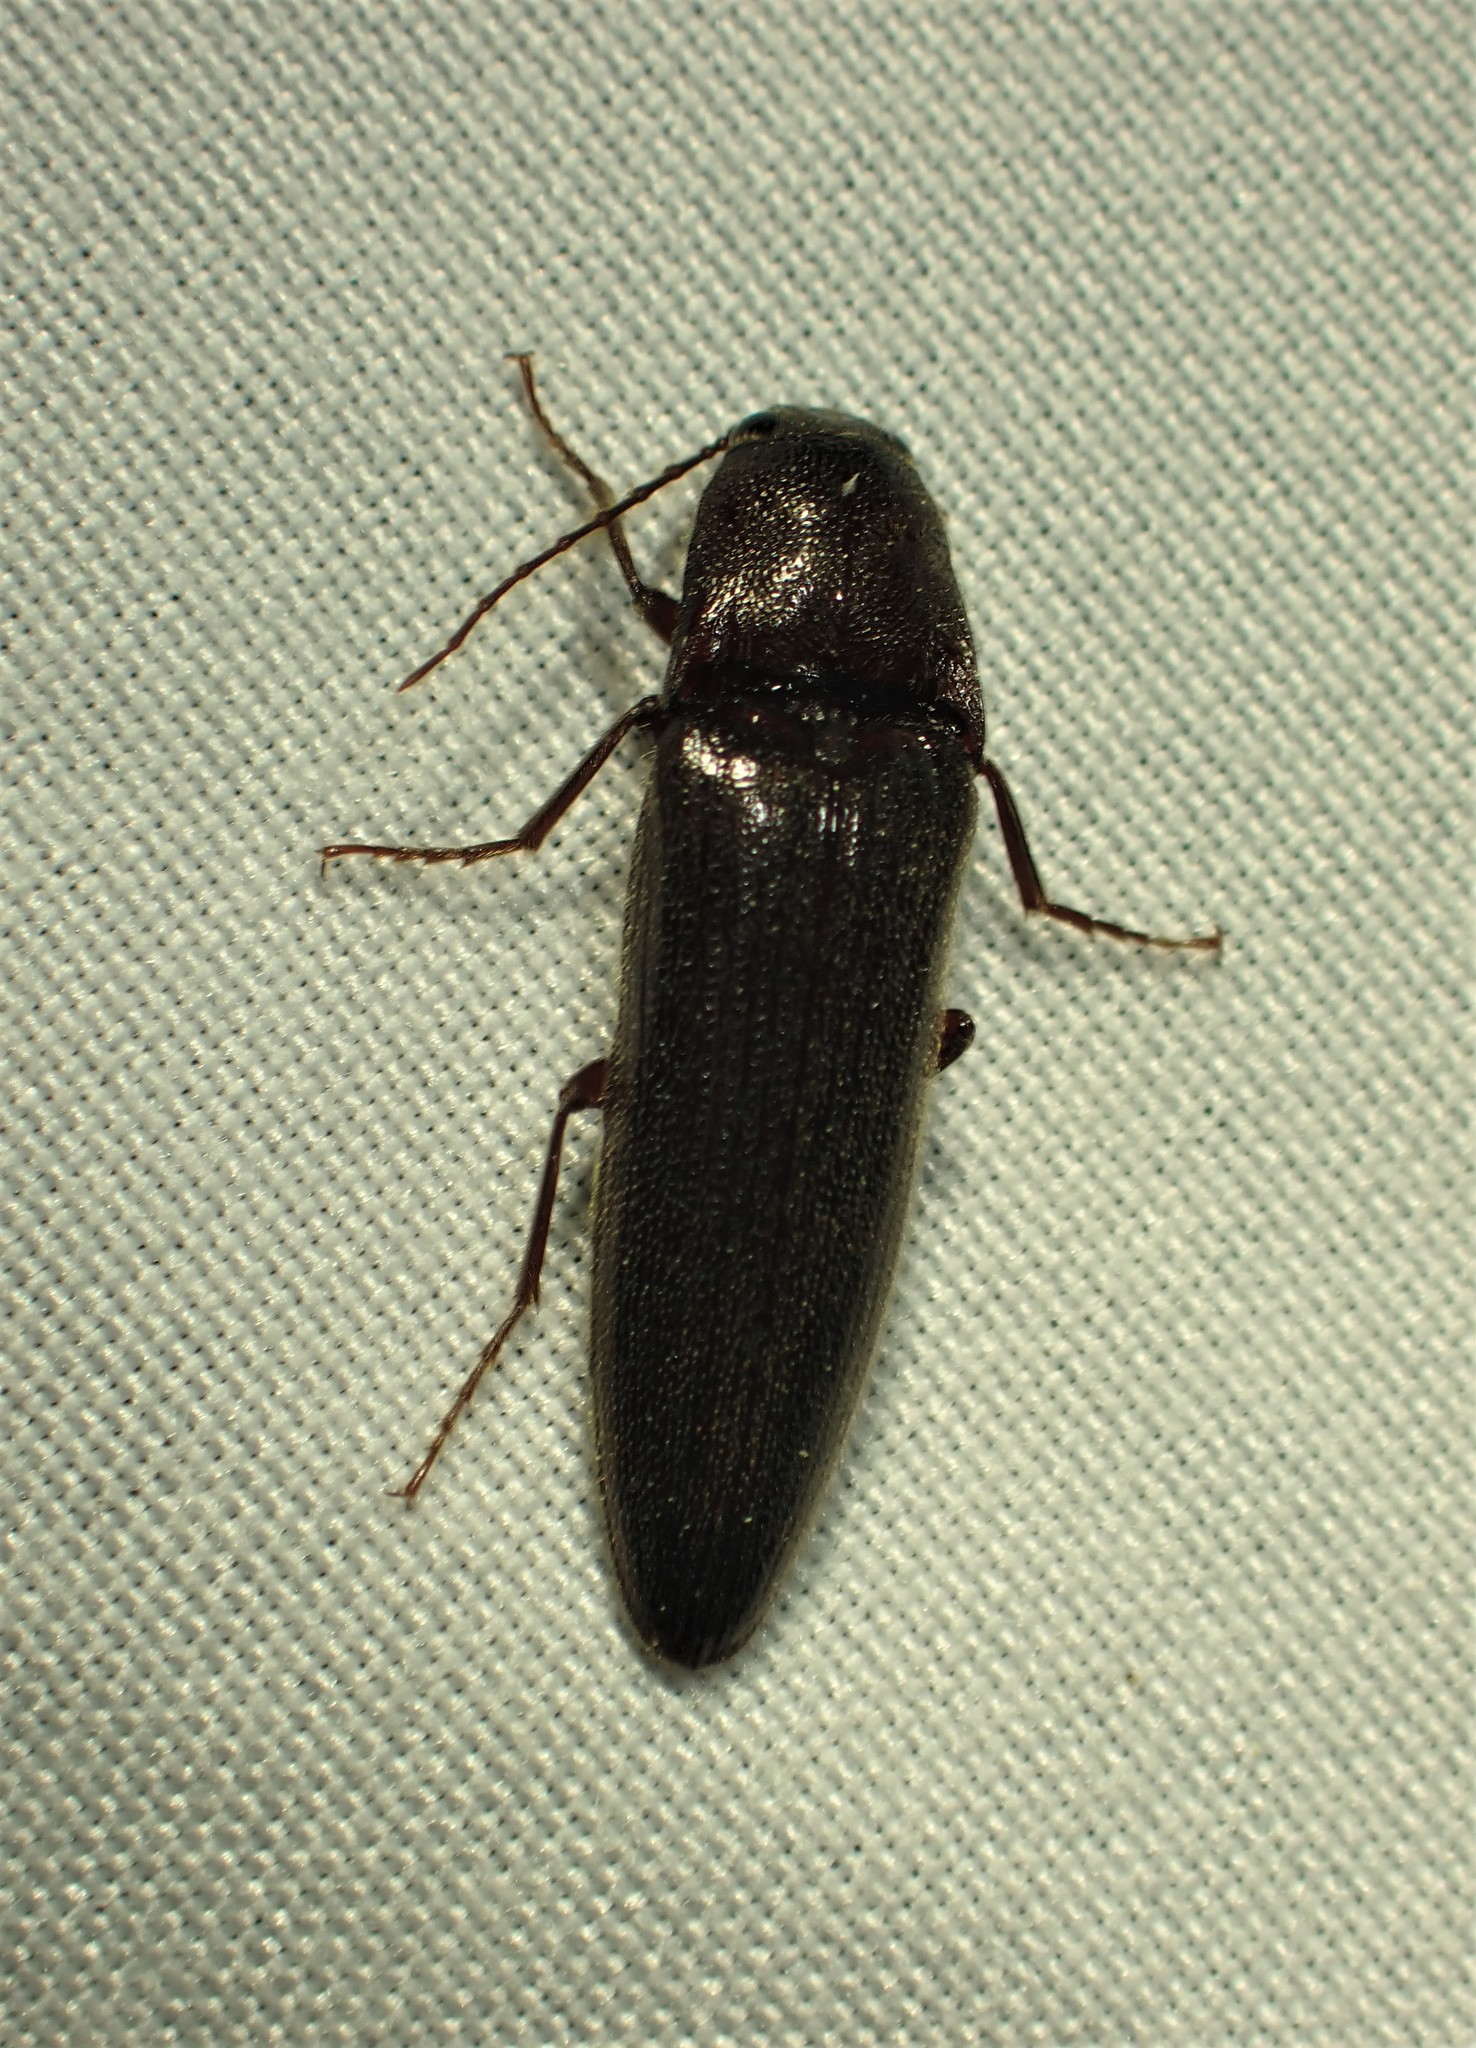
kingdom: Animalia
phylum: Arthropoda
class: Insecta
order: Coleoptera
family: Elateridae
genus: Melanotus
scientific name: Melanotus castanipes
